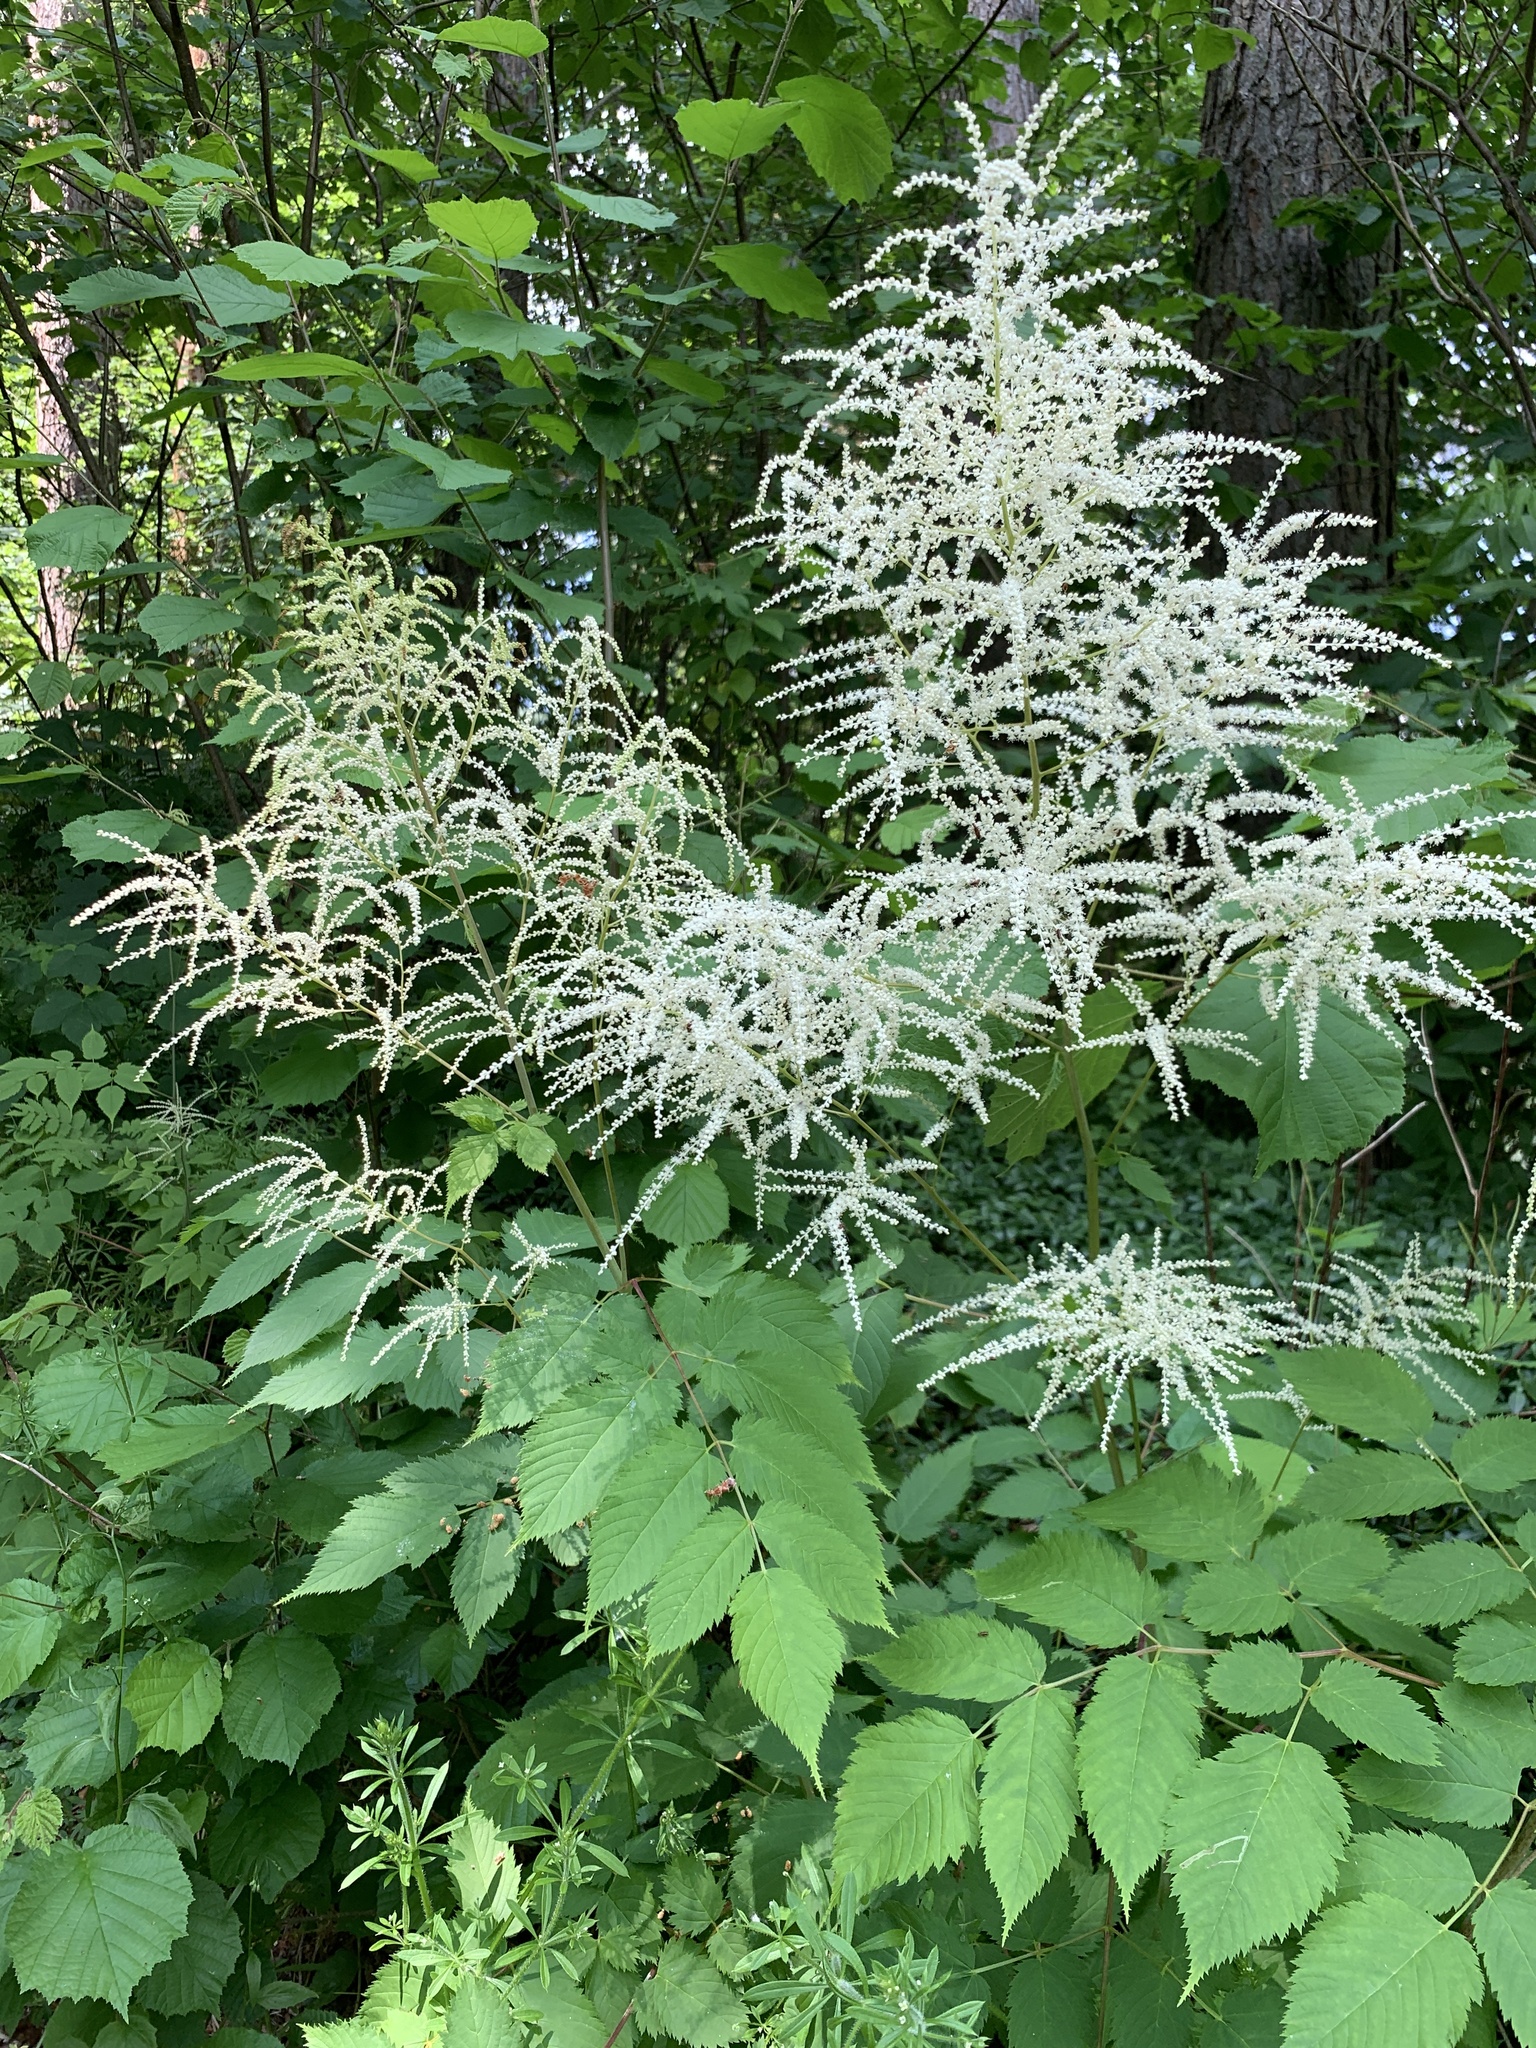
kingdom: Plantae
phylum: Tracheophyta
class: Magnoliopsida
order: Rosales
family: Rosaceae
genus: Aruncus
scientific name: Aruncus dioicus
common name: Buck's-beard
